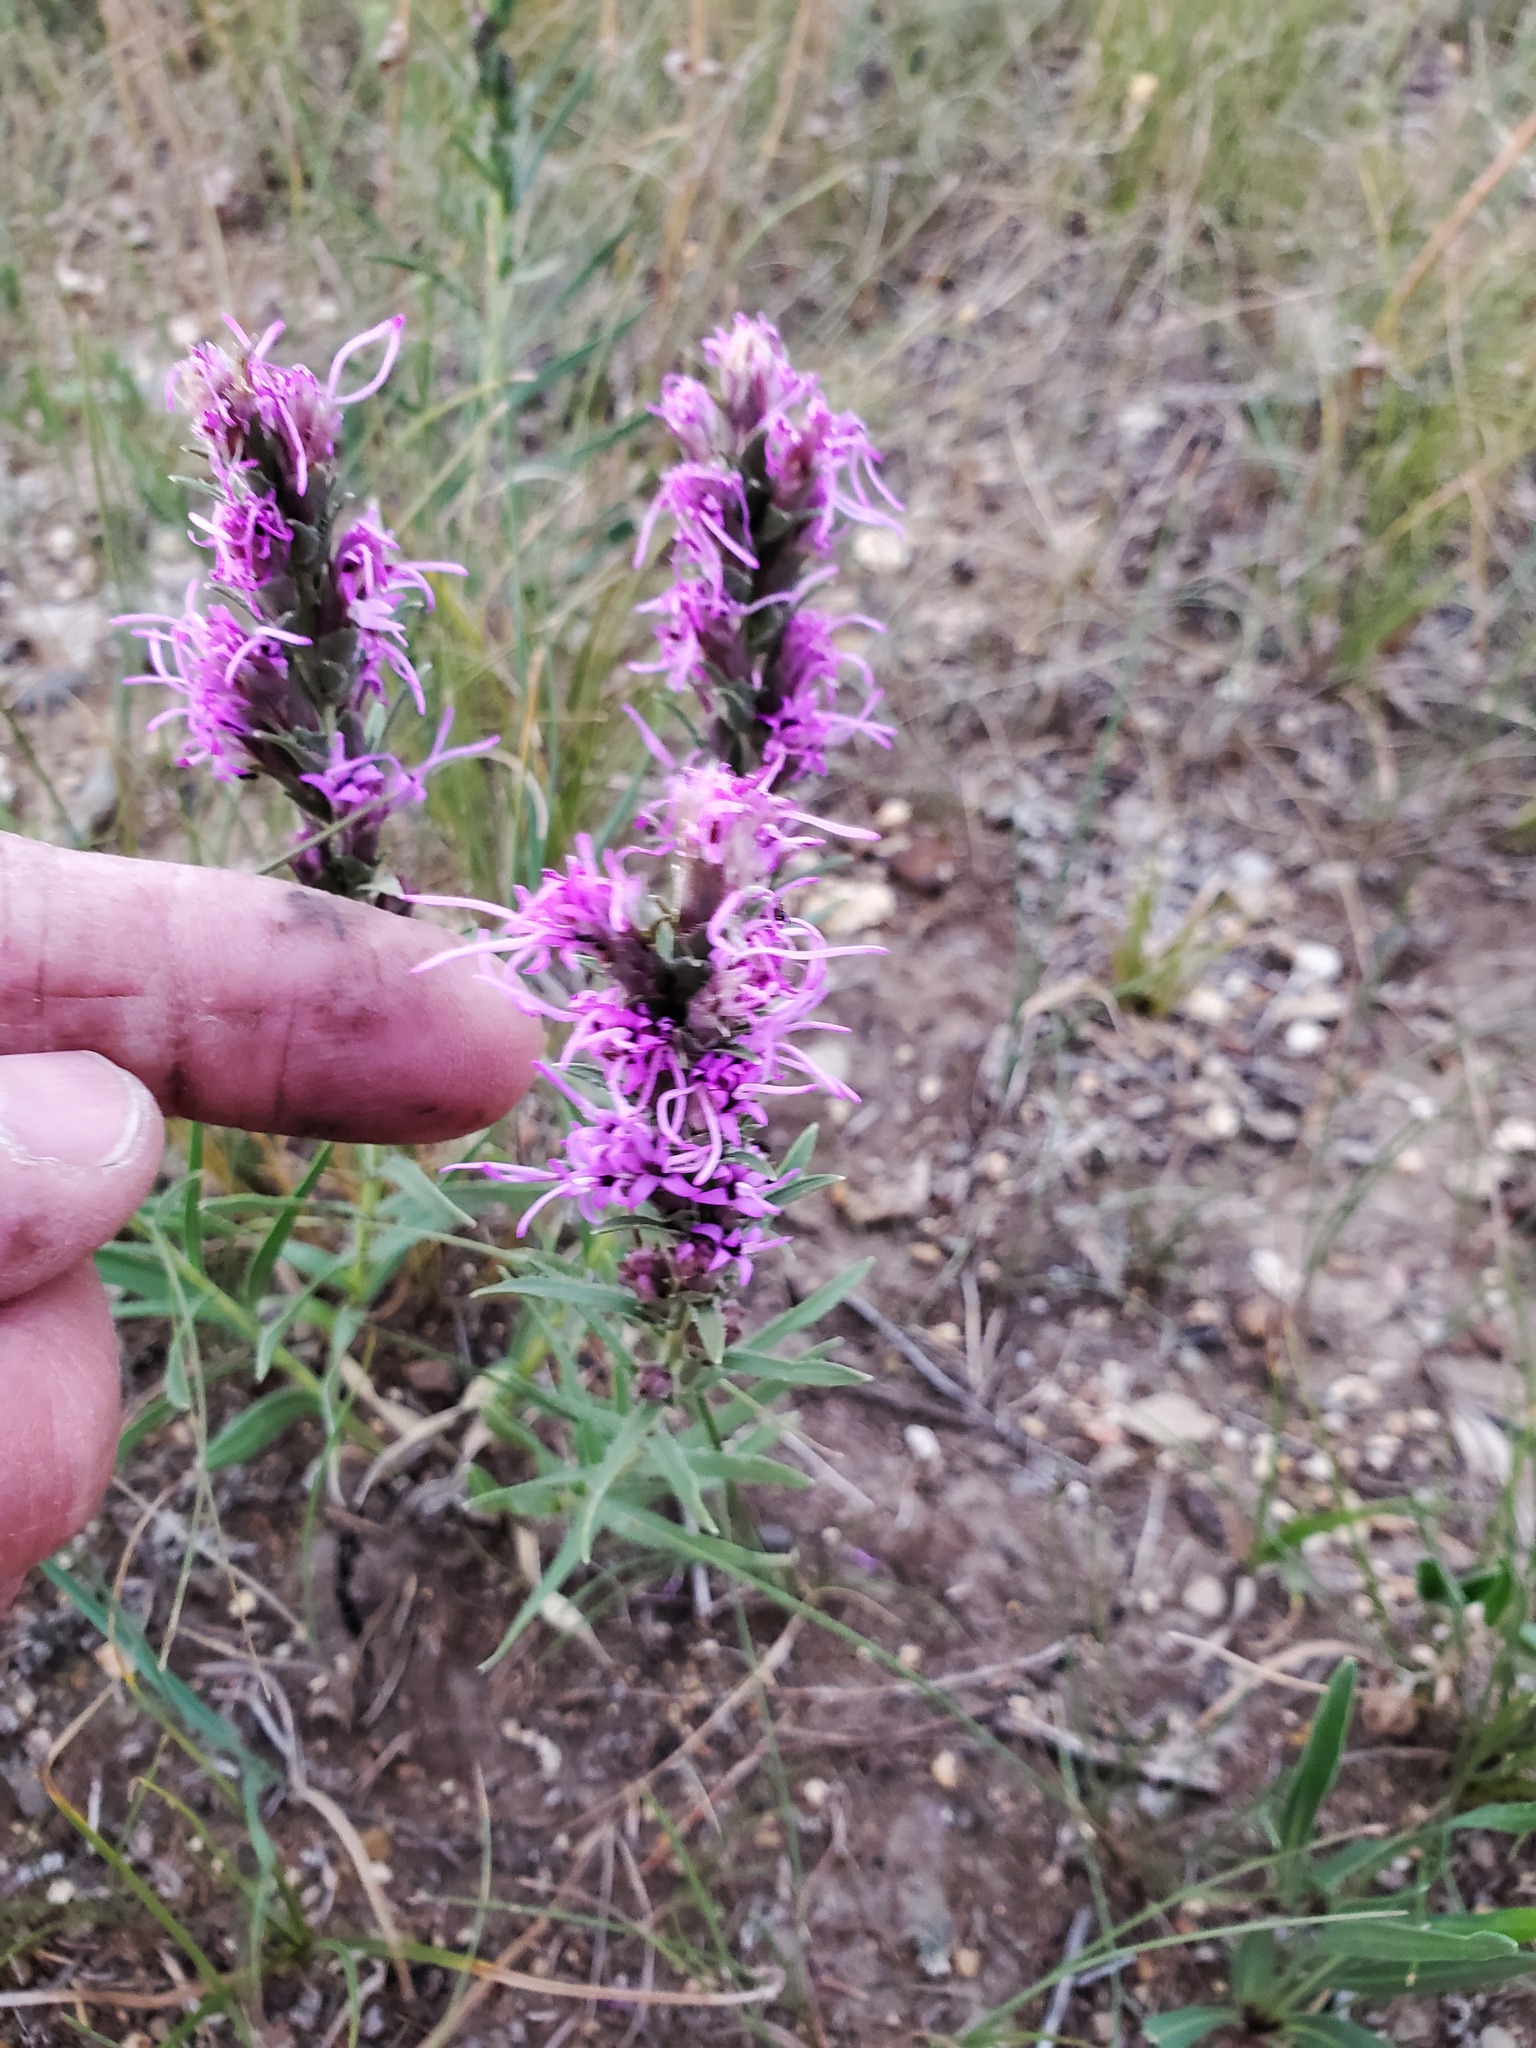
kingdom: Plantae
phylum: Tracheophyta
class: Magnoliopsida
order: Asterales
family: Asteraceae
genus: Liatris
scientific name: Liatris punctata
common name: Dotted gayfeather
